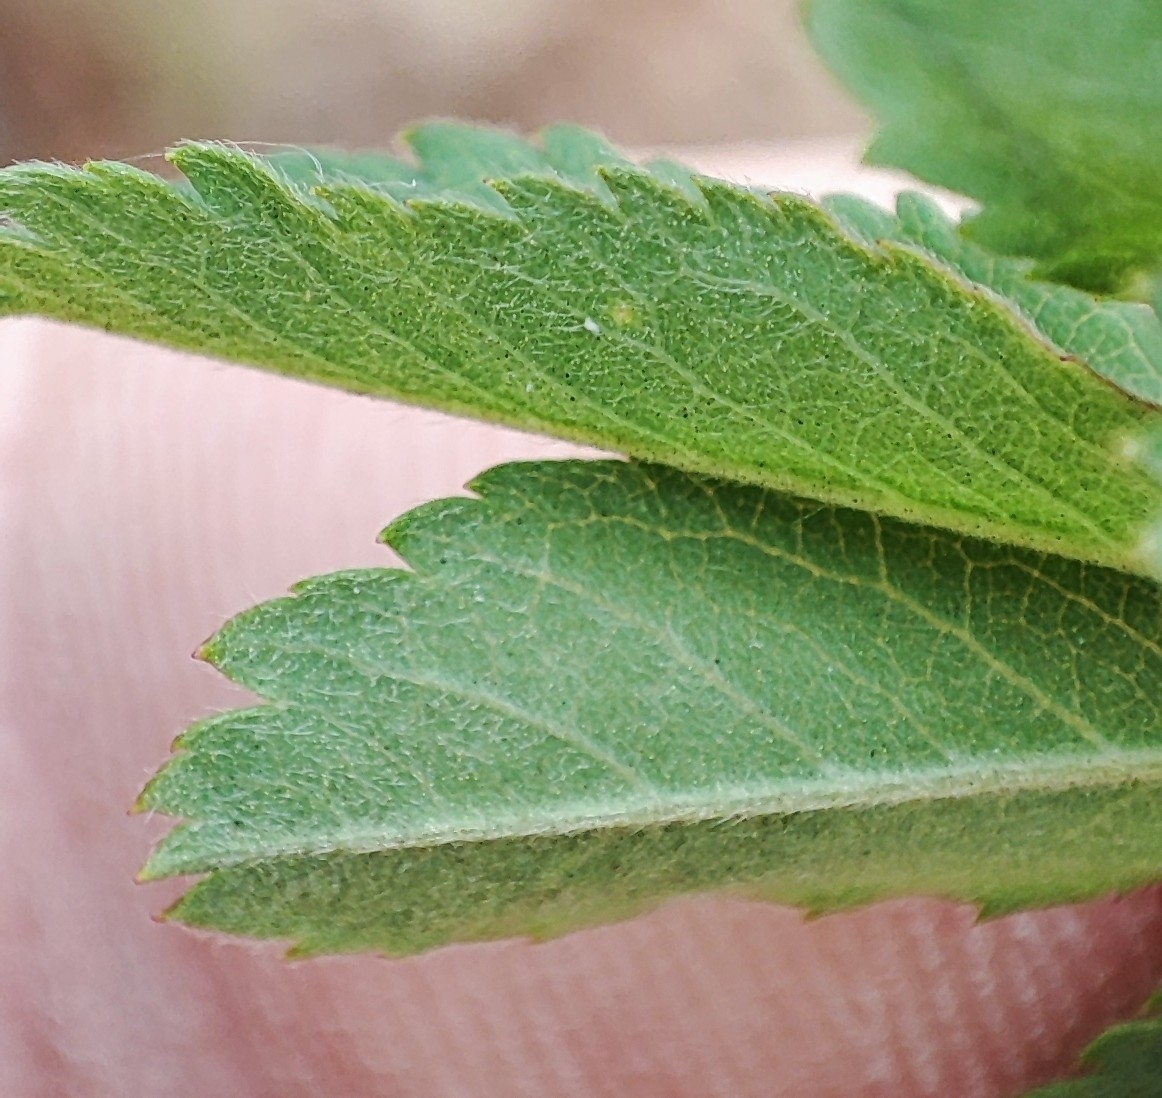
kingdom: Plantae
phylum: Tracheophyta
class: Magnoliopsida
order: Rosales
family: Rosaceae
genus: Rosa
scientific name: Rosa majalis
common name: Cinnamon rose
